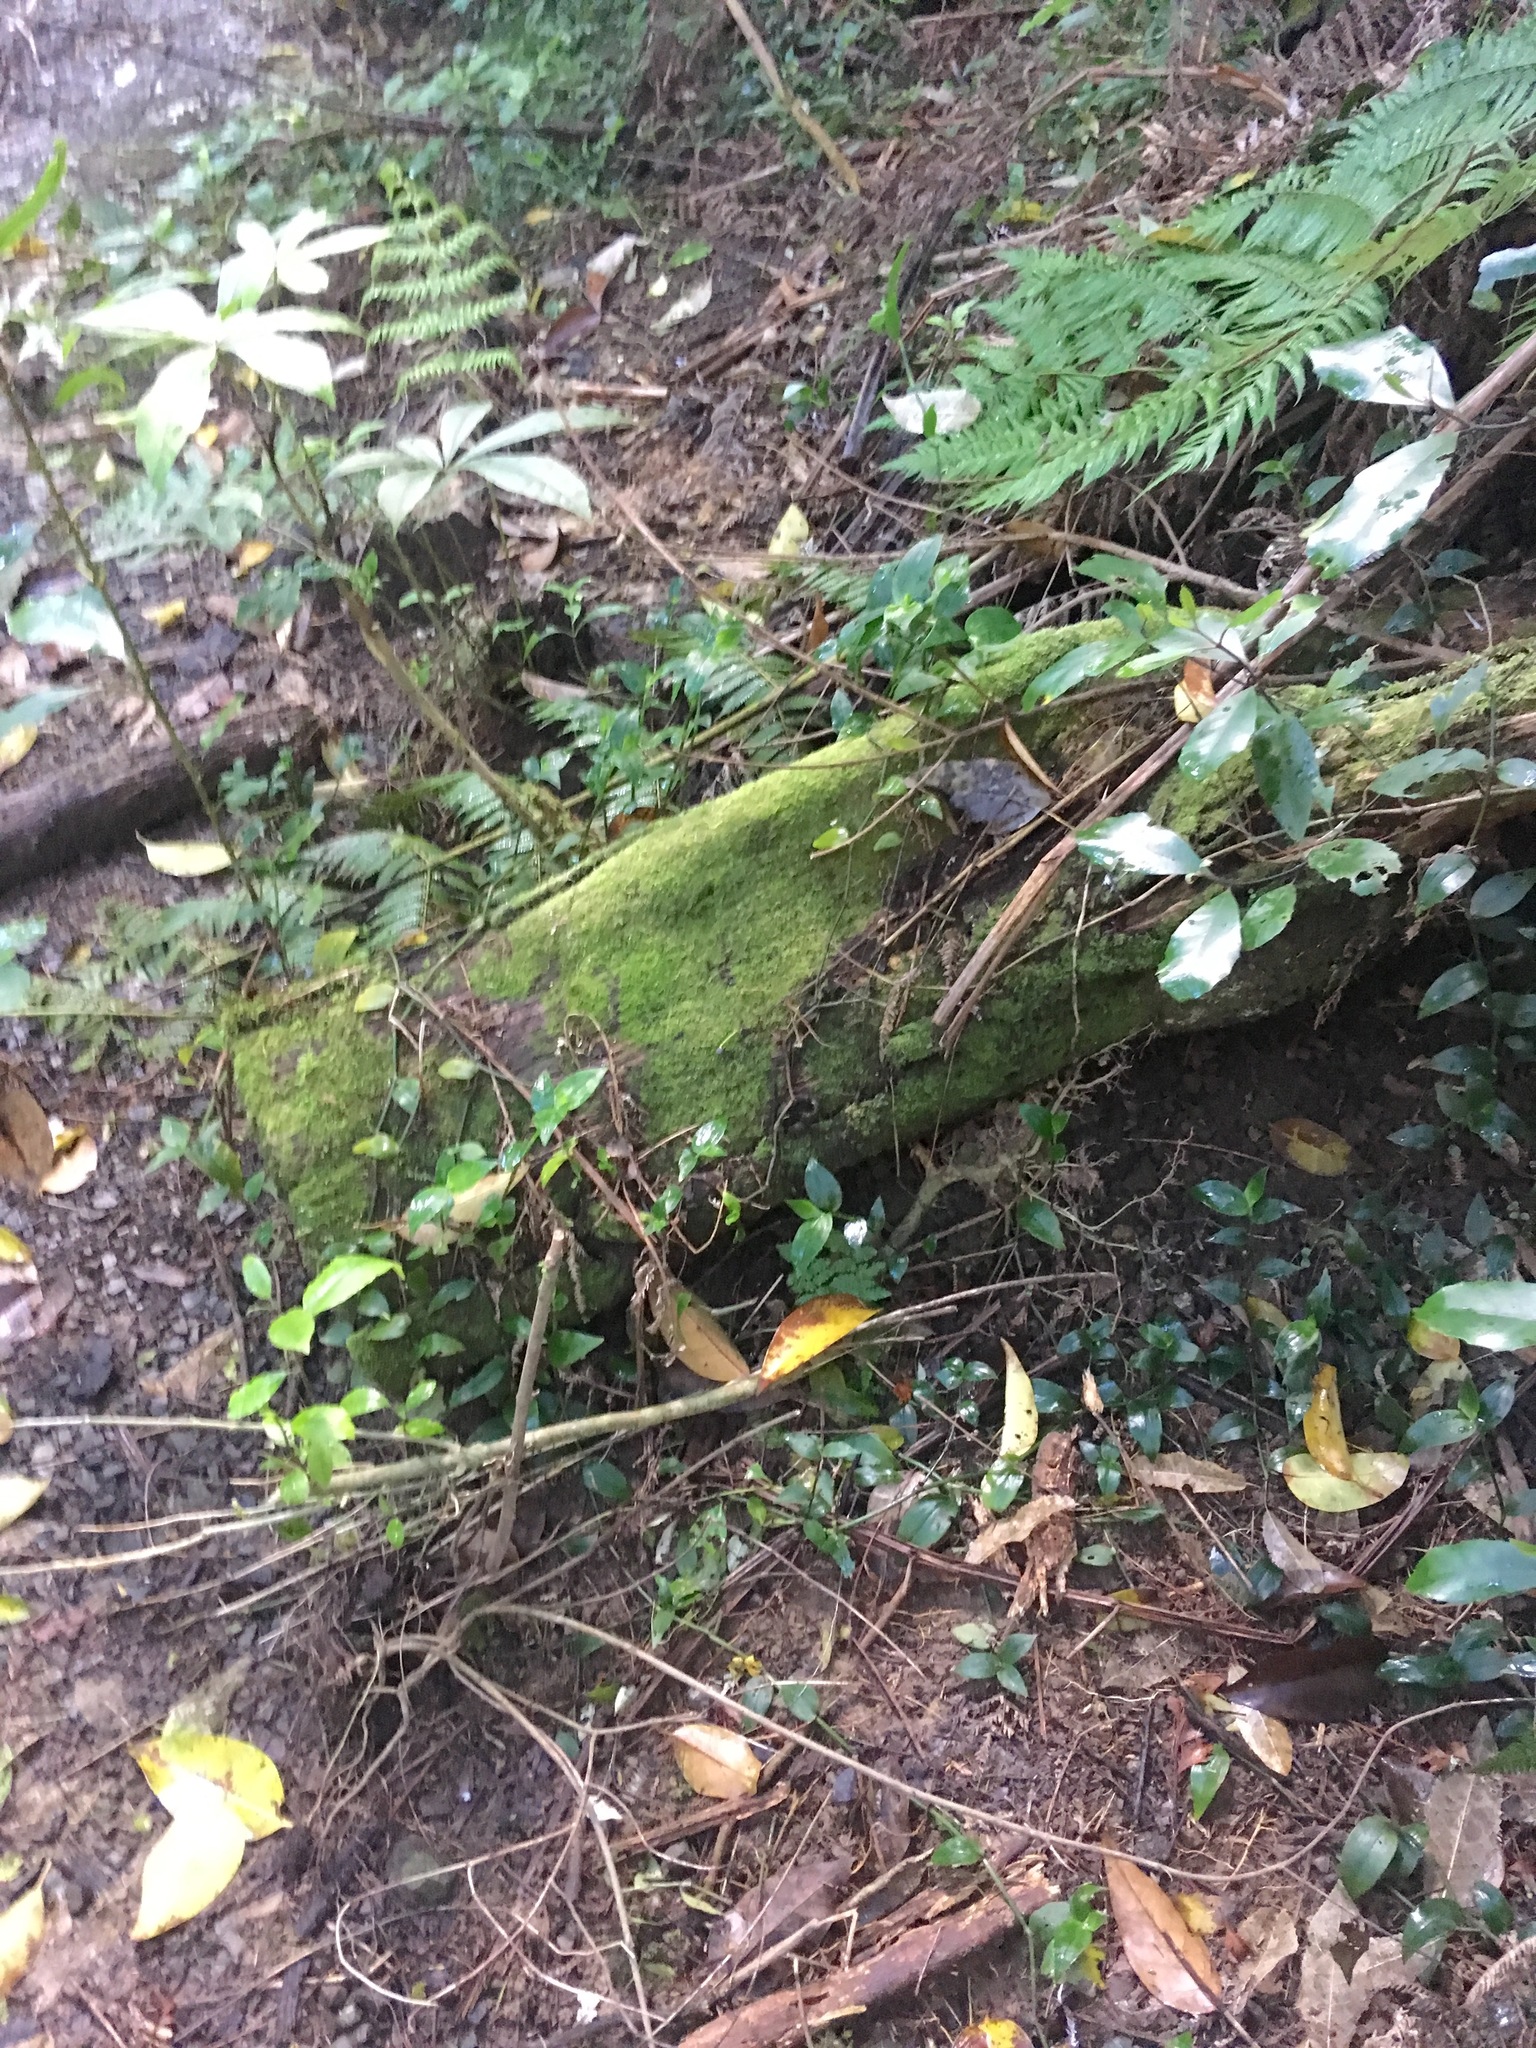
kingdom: Plantae
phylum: Tracheophyta
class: Liliopsida
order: Commelinales
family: Commelinaceae
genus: Tradescantia
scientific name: Tradescantia fluminensis
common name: Wandering-jew
